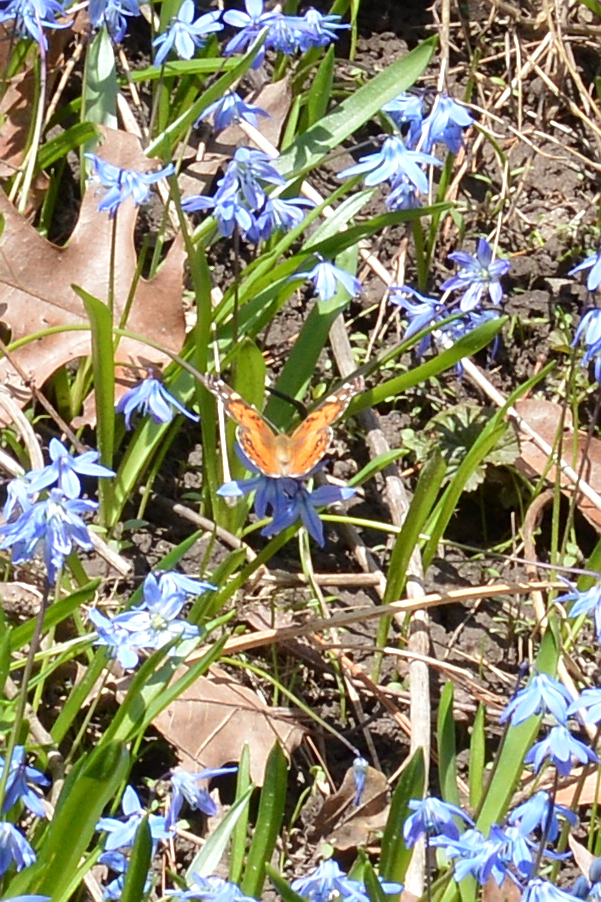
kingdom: Animalia
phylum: Arthropoda
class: Insecta
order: Lepidoptera
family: Nymphalidae
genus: Vanessa
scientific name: Vanessa virginiensis
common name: American lady
